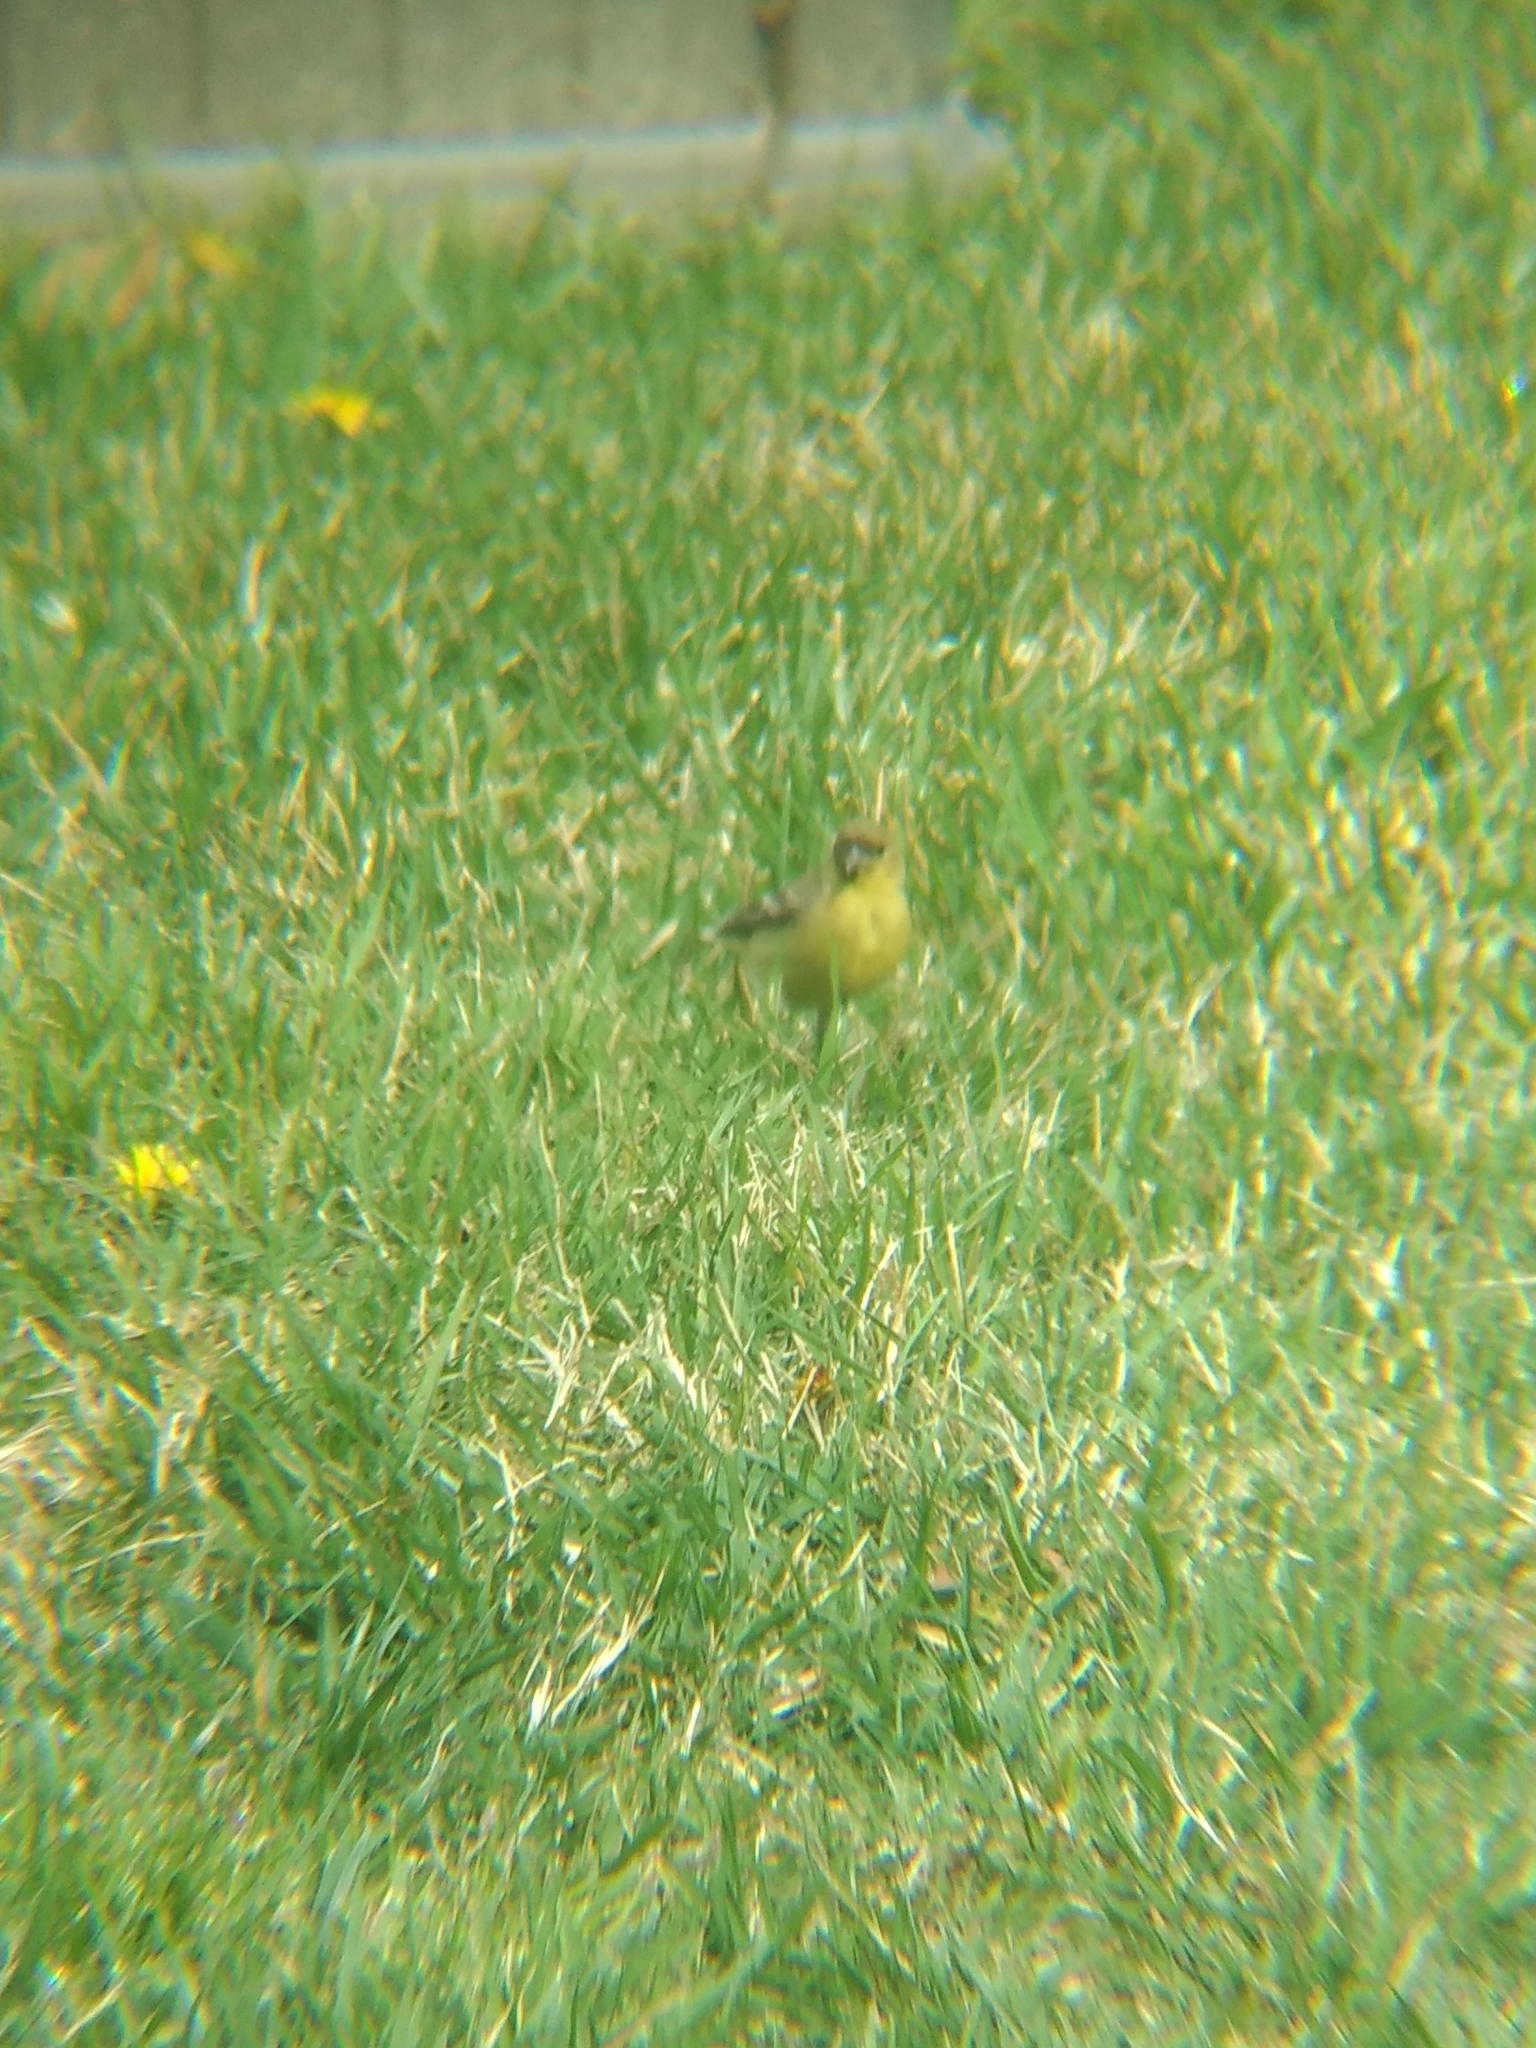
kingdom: Animalia
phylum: Chordata
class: Aves
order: Passeriformes
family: Fringillidae
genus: Spinus
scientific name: Spinus psaltria
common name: Lesser goldfinch
